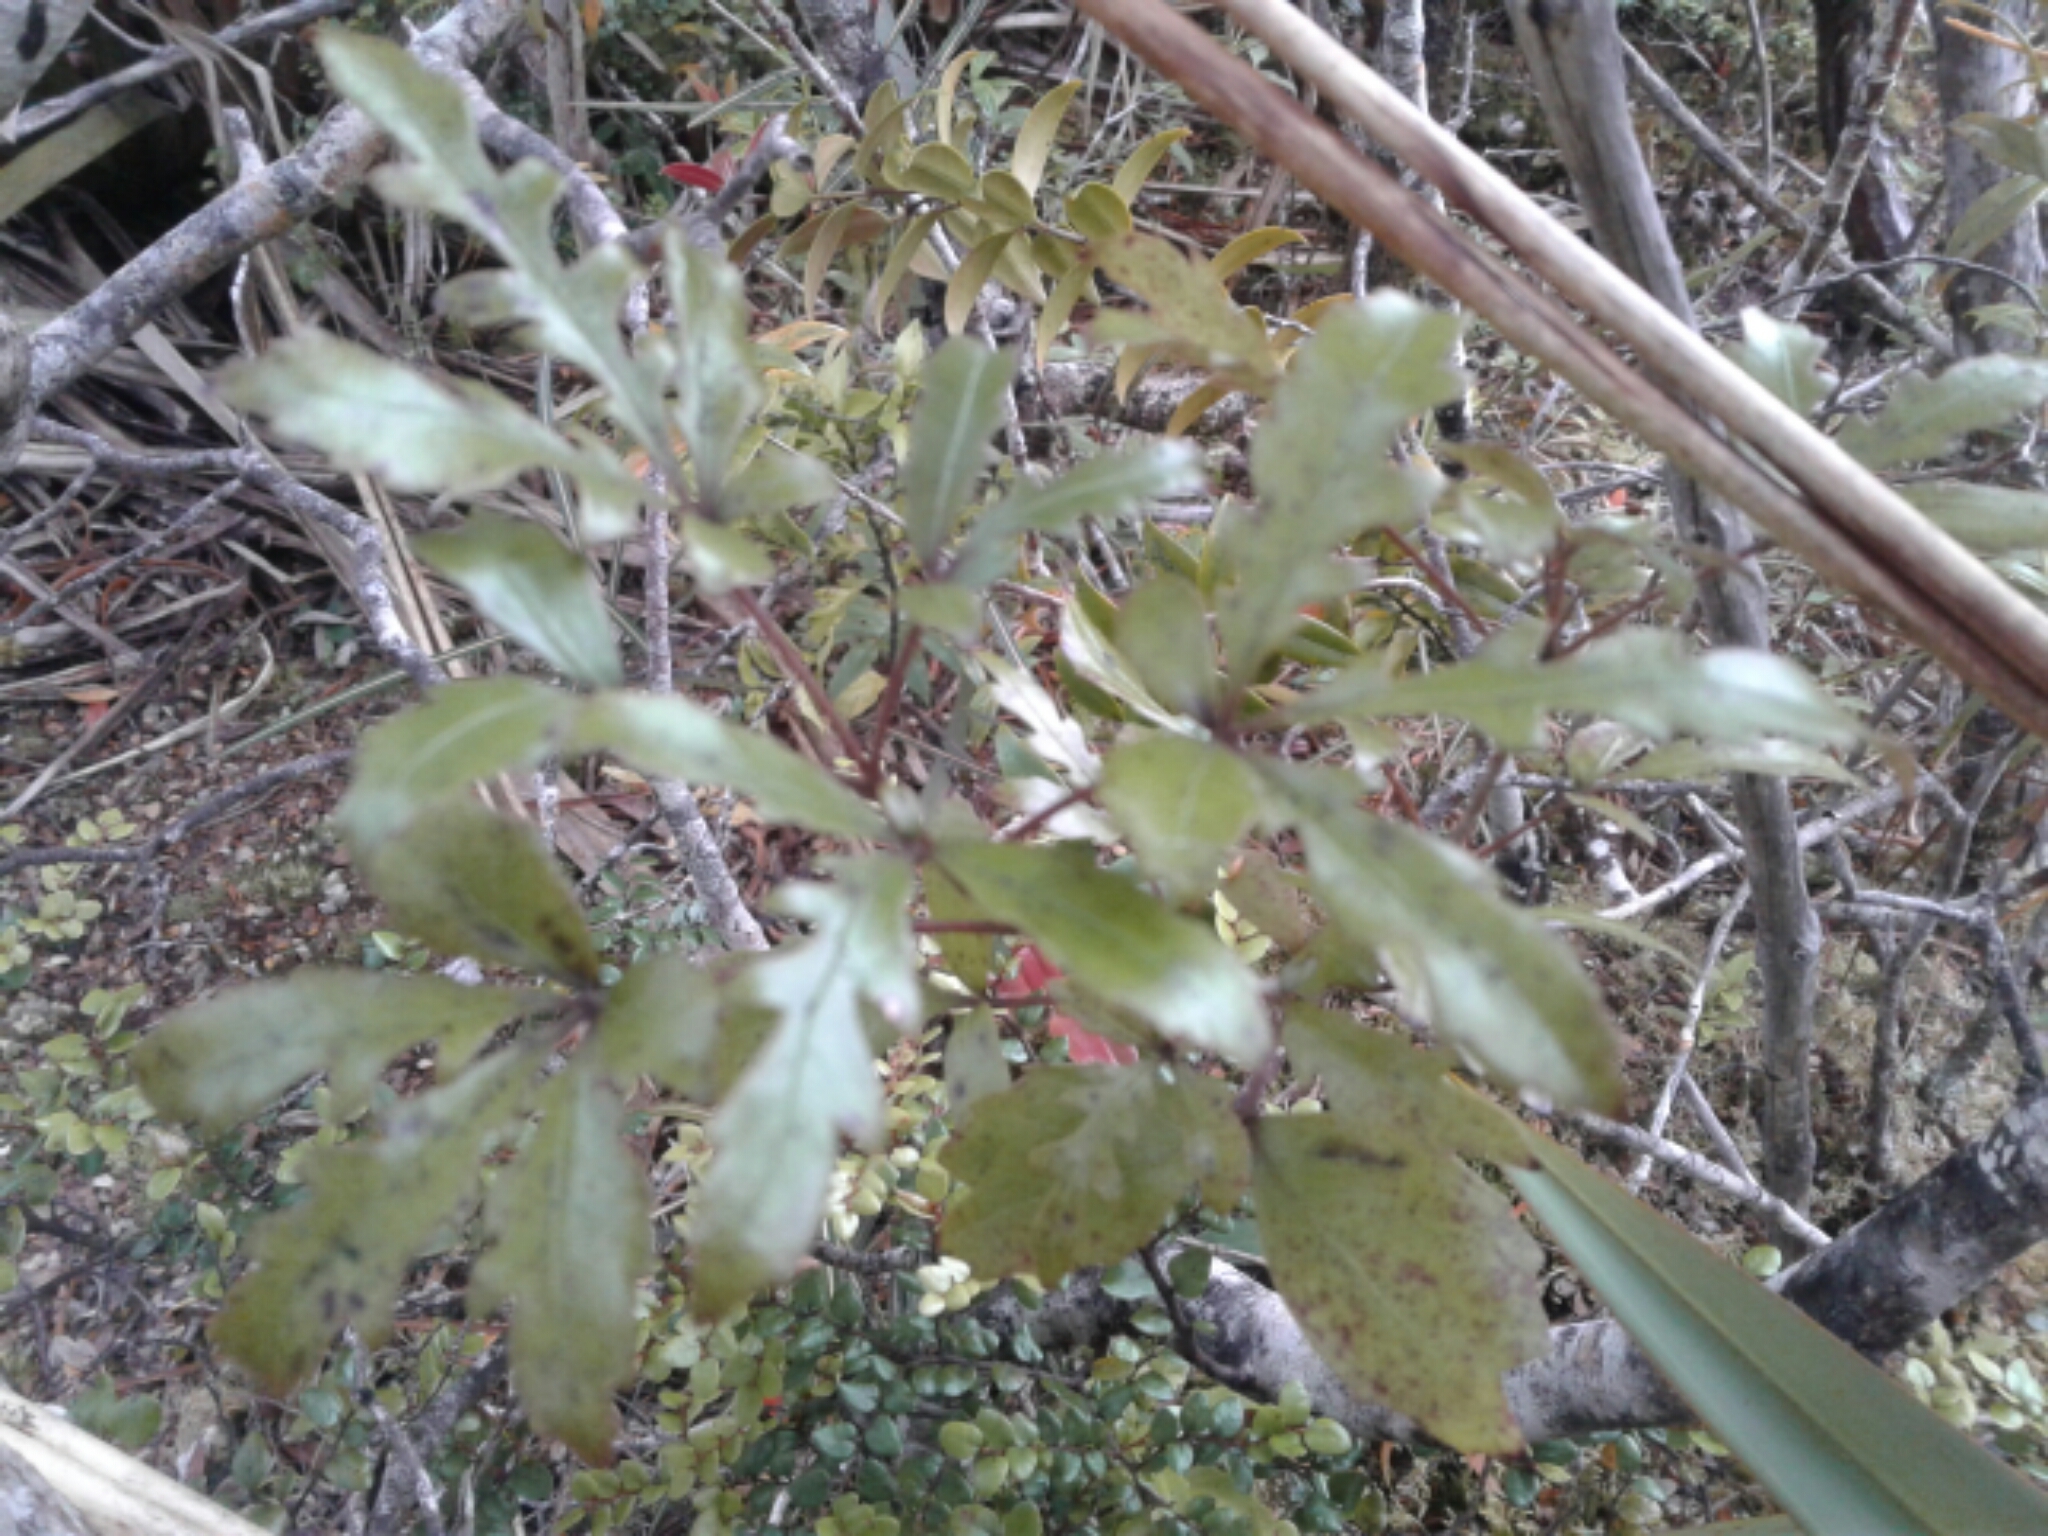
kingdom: Plantae
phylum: Tracheophyta
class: Magnoliopsida
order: Apiales
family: Araliaceae
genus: Raukaua
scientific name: Raukaua simplex
